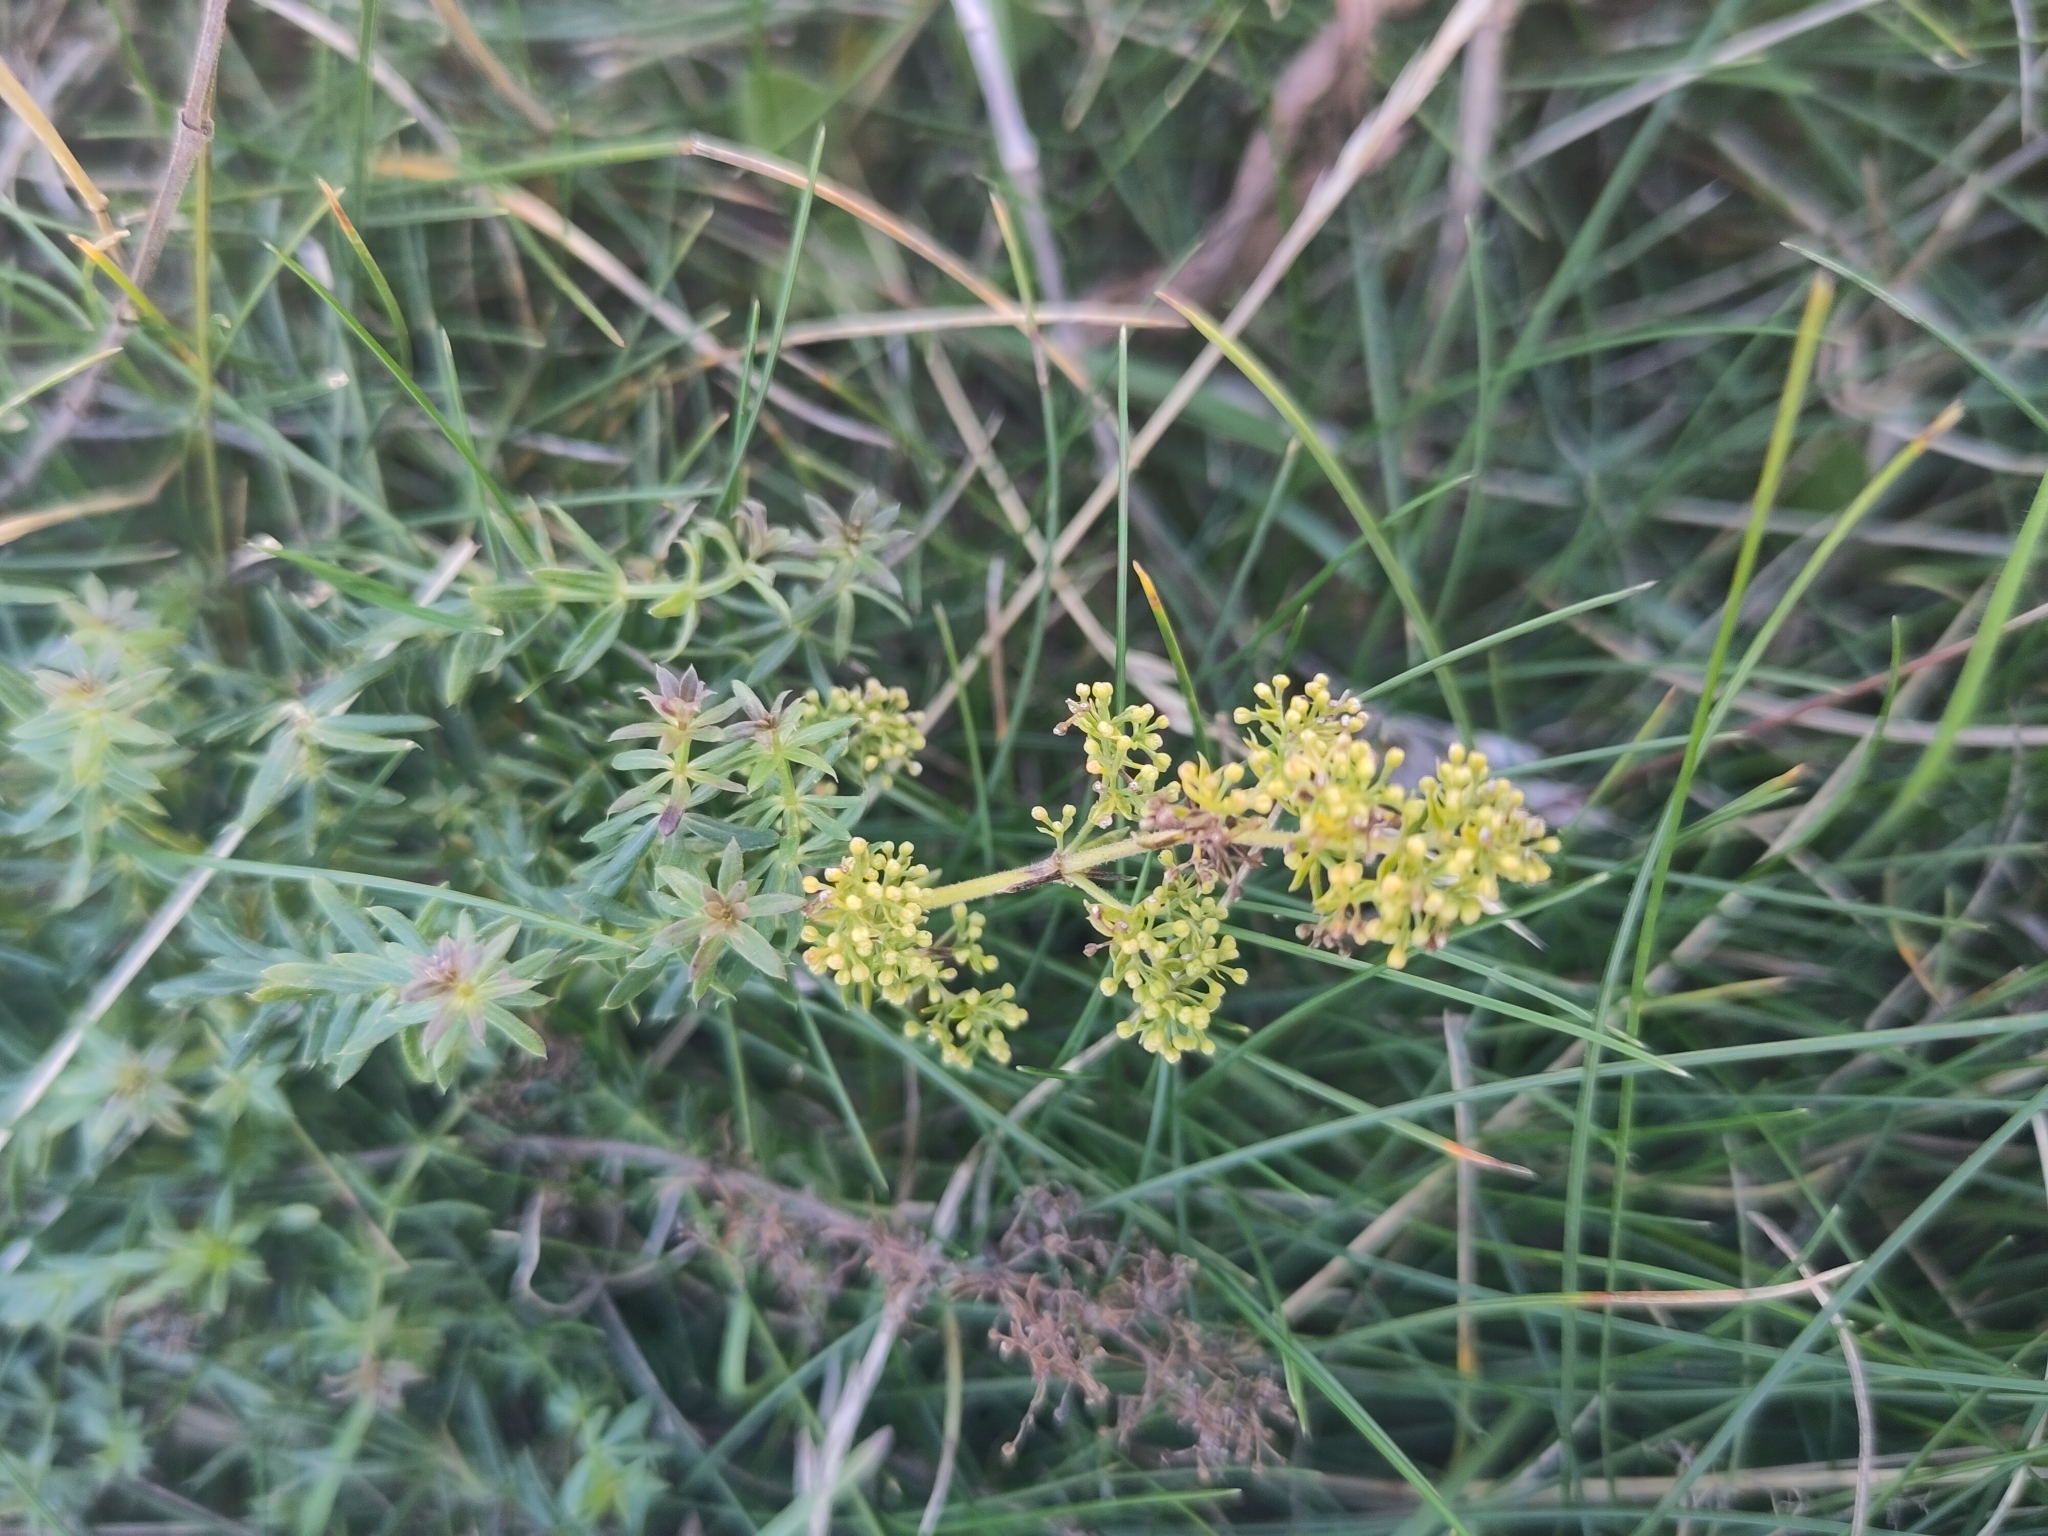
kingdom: Plantae
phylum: Tracheophyta
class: Magnoliopsida
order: Gentianales
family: Rubiaceae
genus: Galium
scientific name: Galium verum
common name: Lady's bedstraw
